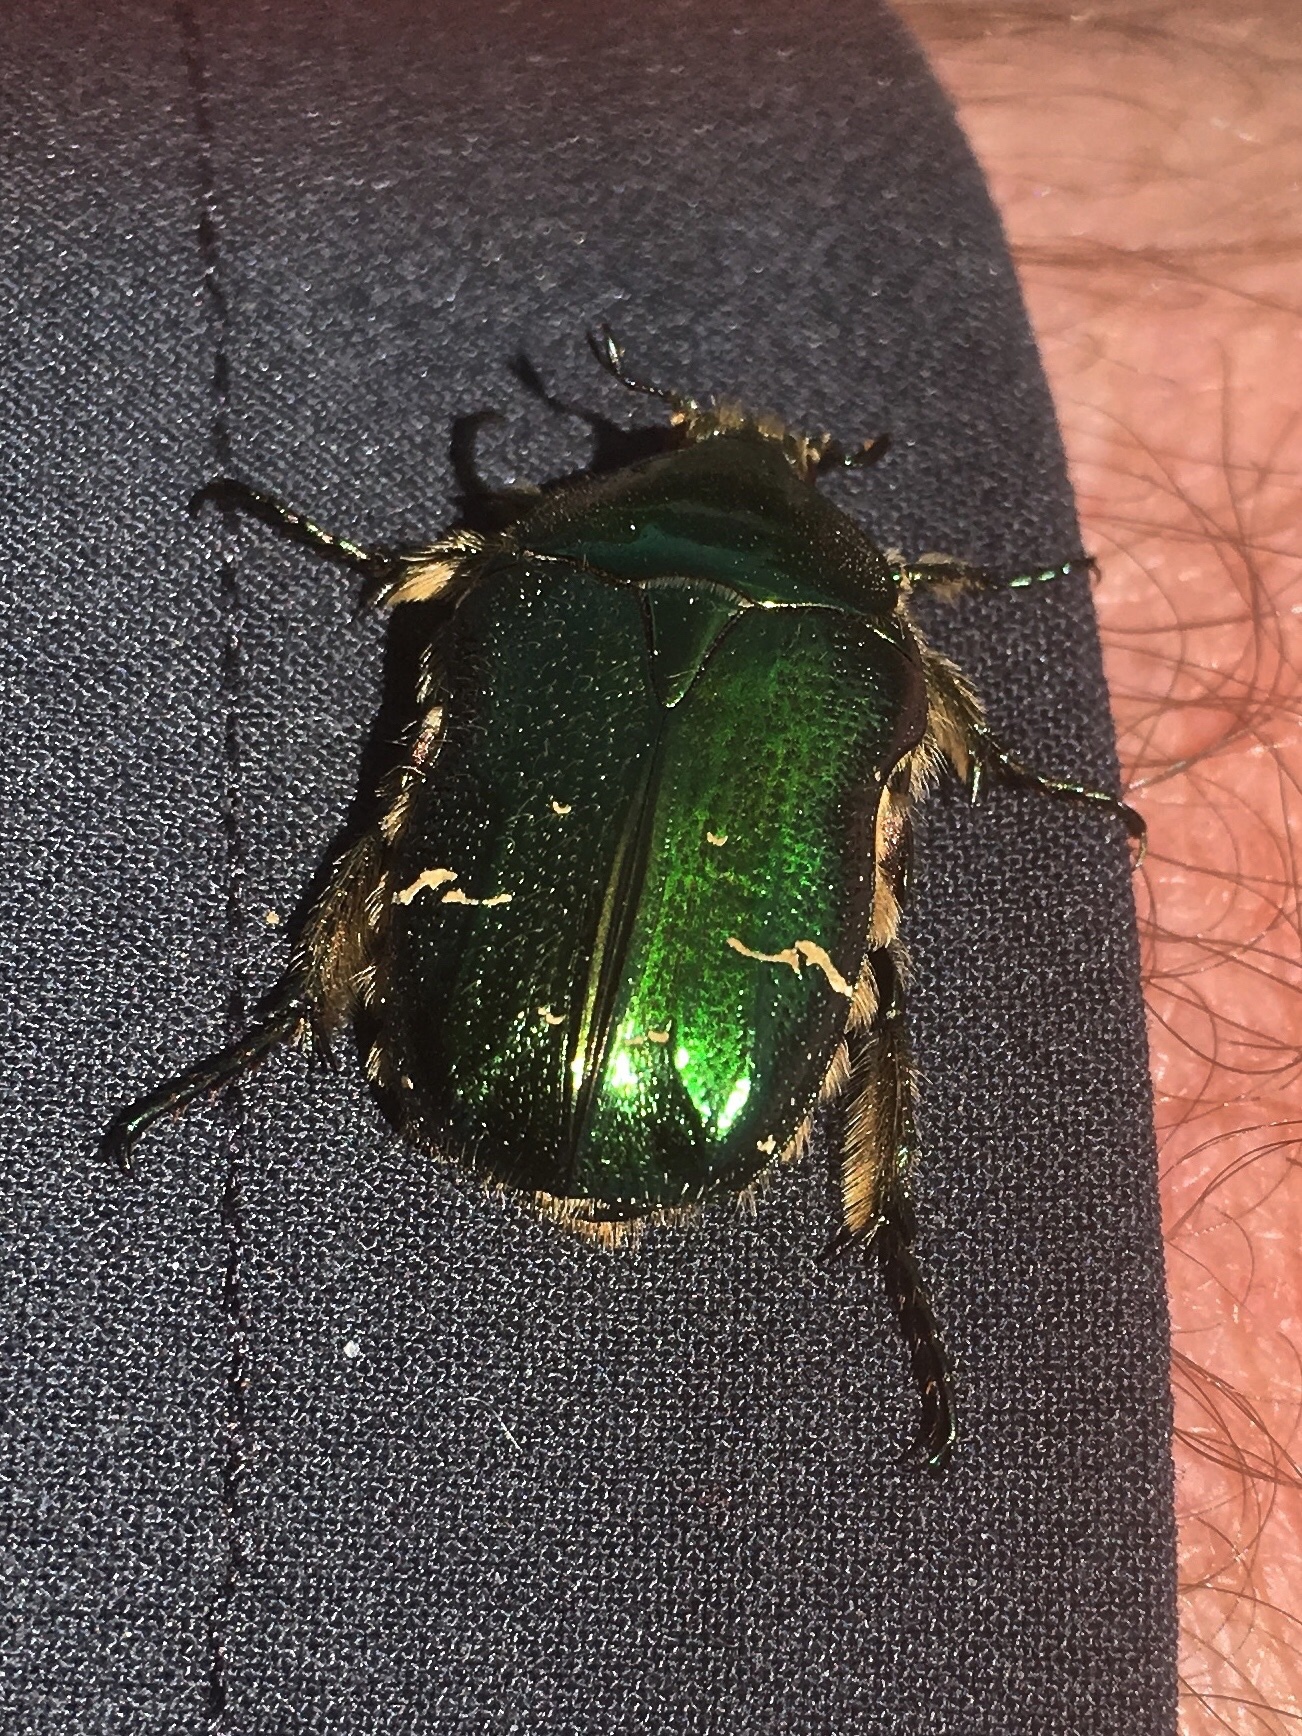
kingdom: Animalia
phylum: Arthropoda
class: Insecta
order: Coleoptera
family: Scarabaeidae
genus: Cetonia
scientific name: Cetonia aurata
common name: Rose chafer
